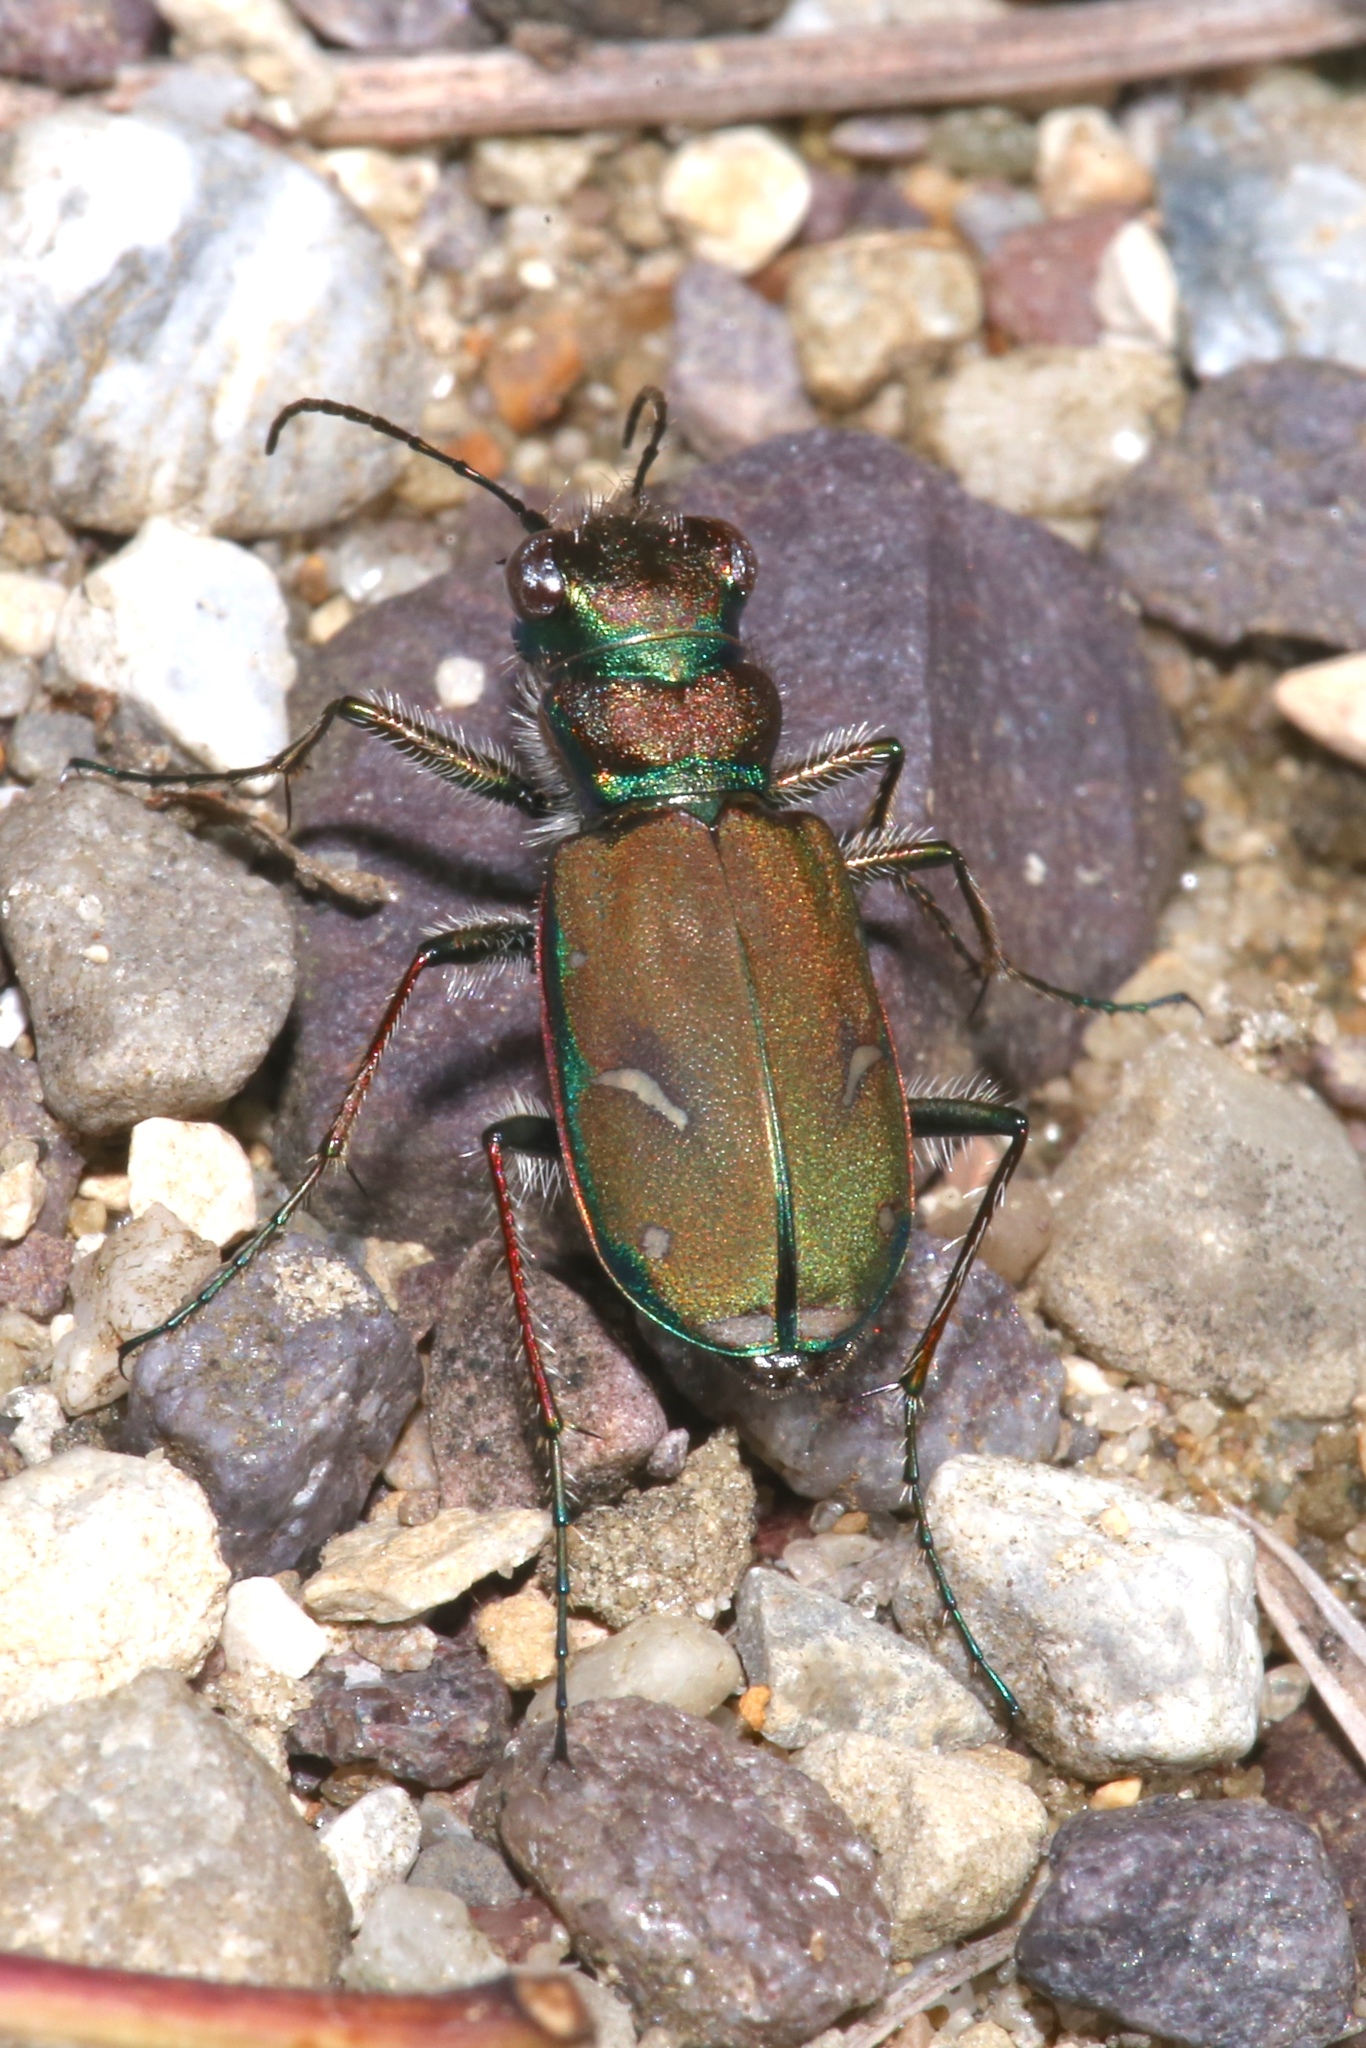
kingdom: Animalia
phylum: Arthropoda
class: Insecta
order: Coleoptera
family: Carabidae
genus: Cicindela
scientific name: Cicindela purpurea
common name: Cow path tiger beetle
